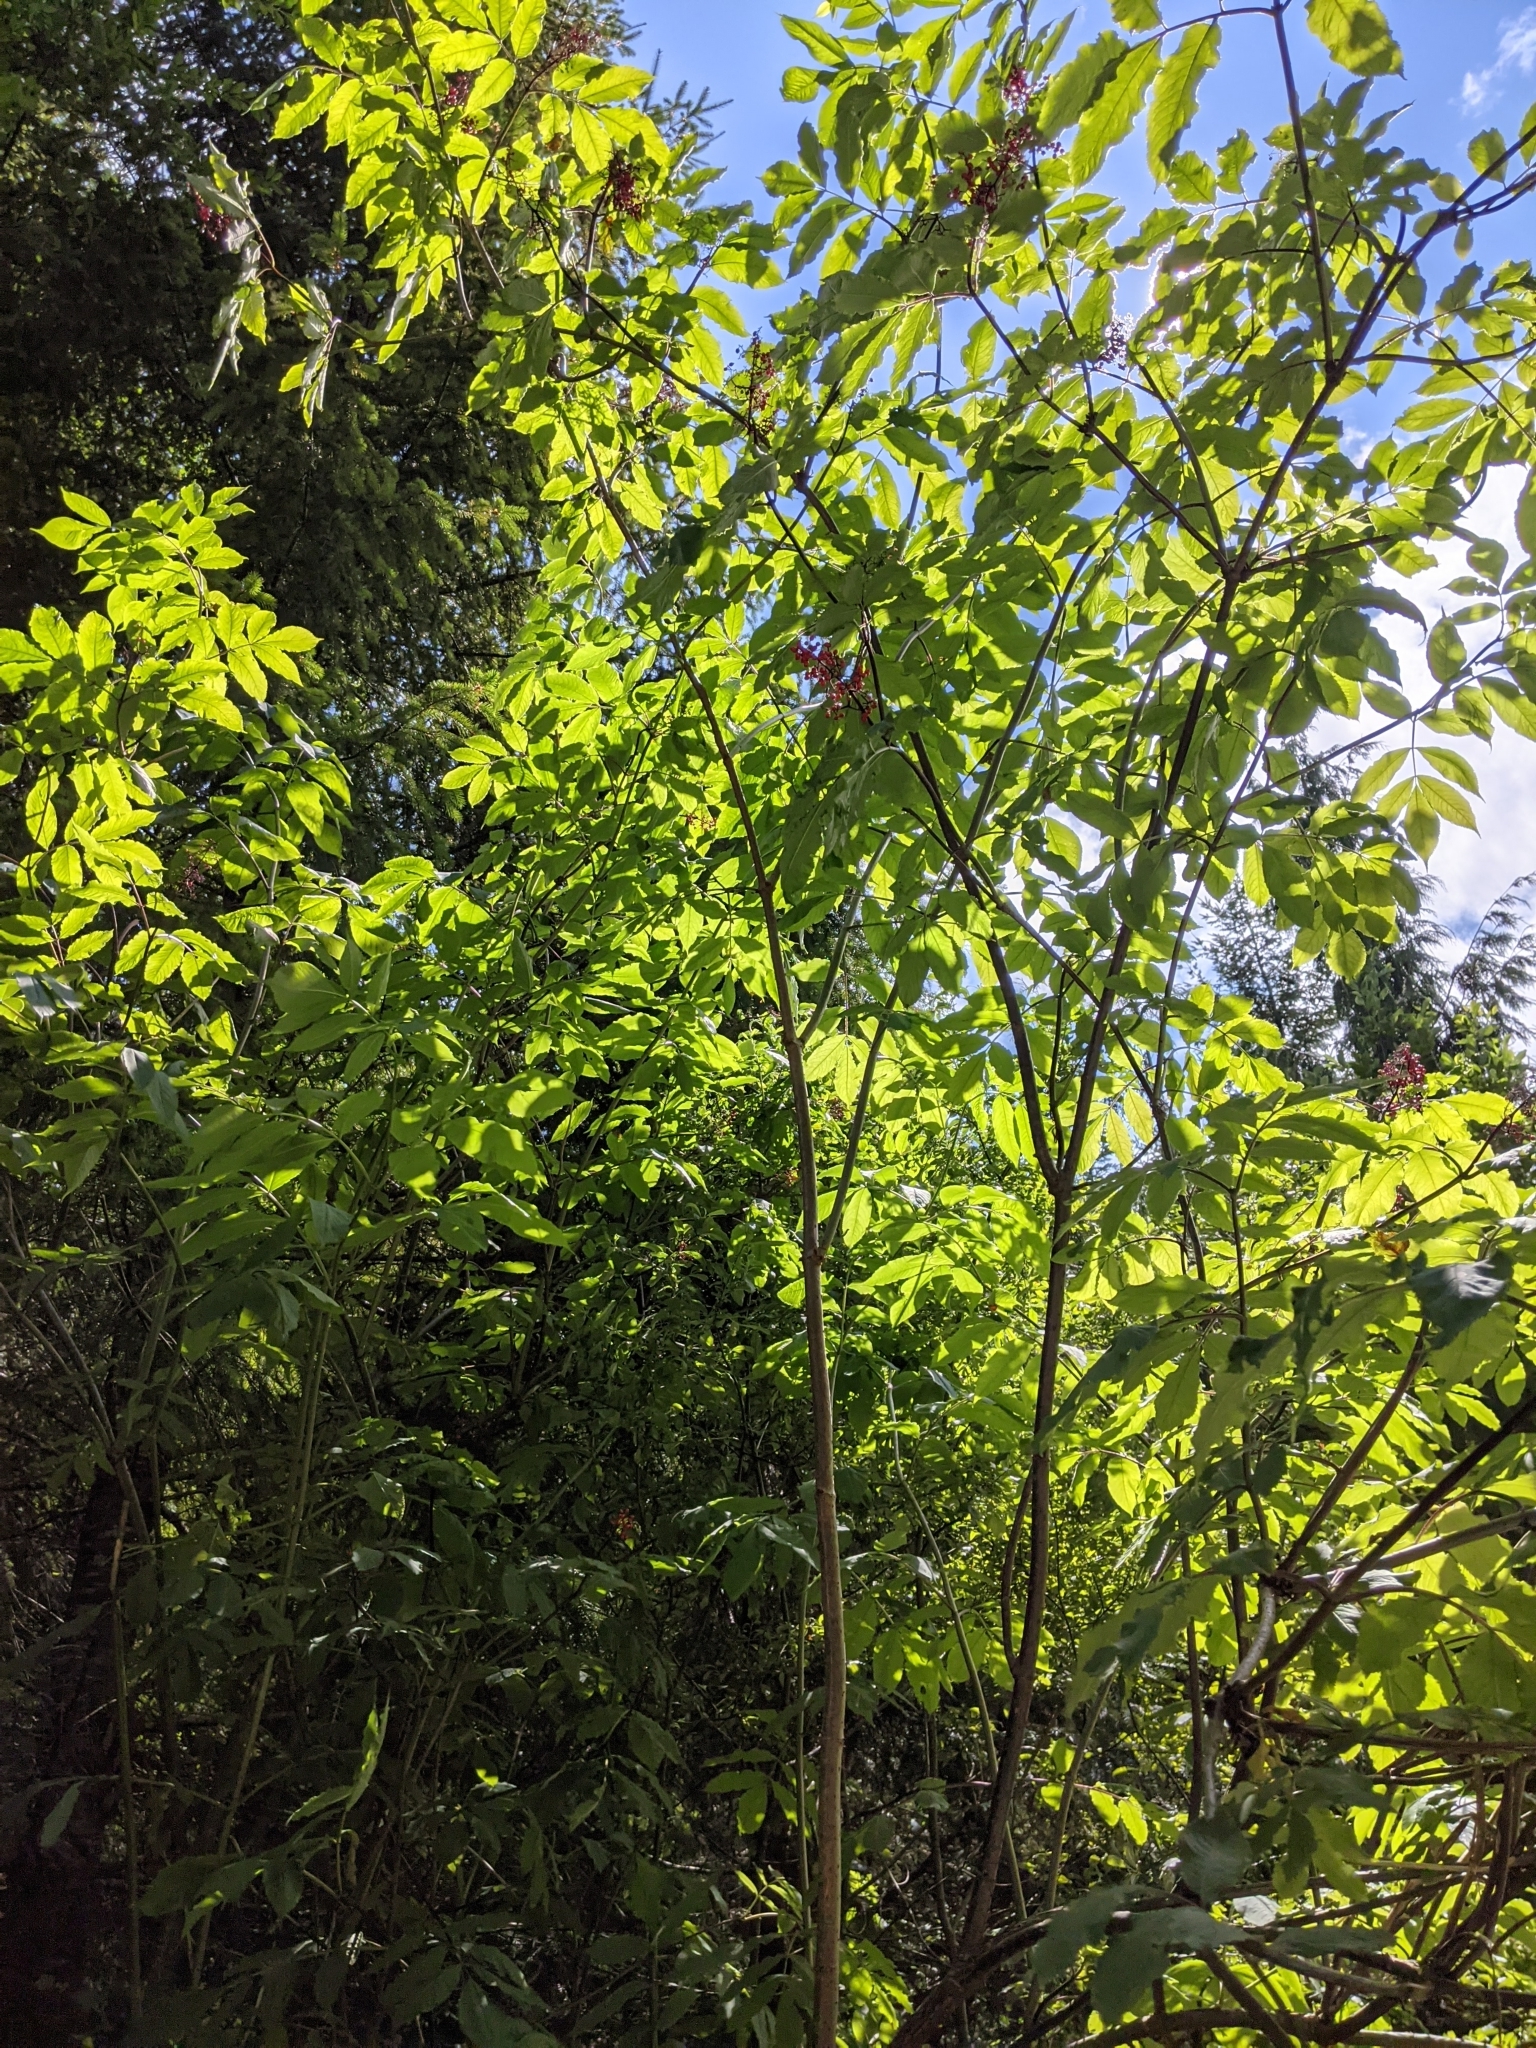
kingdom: Plantae
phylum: Tracheophyta
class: Magnoliopsida
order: Dipsacales
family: Viburnaceae
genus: Sambucus
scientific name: Sambucus racemosa
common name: Red-berried elder
